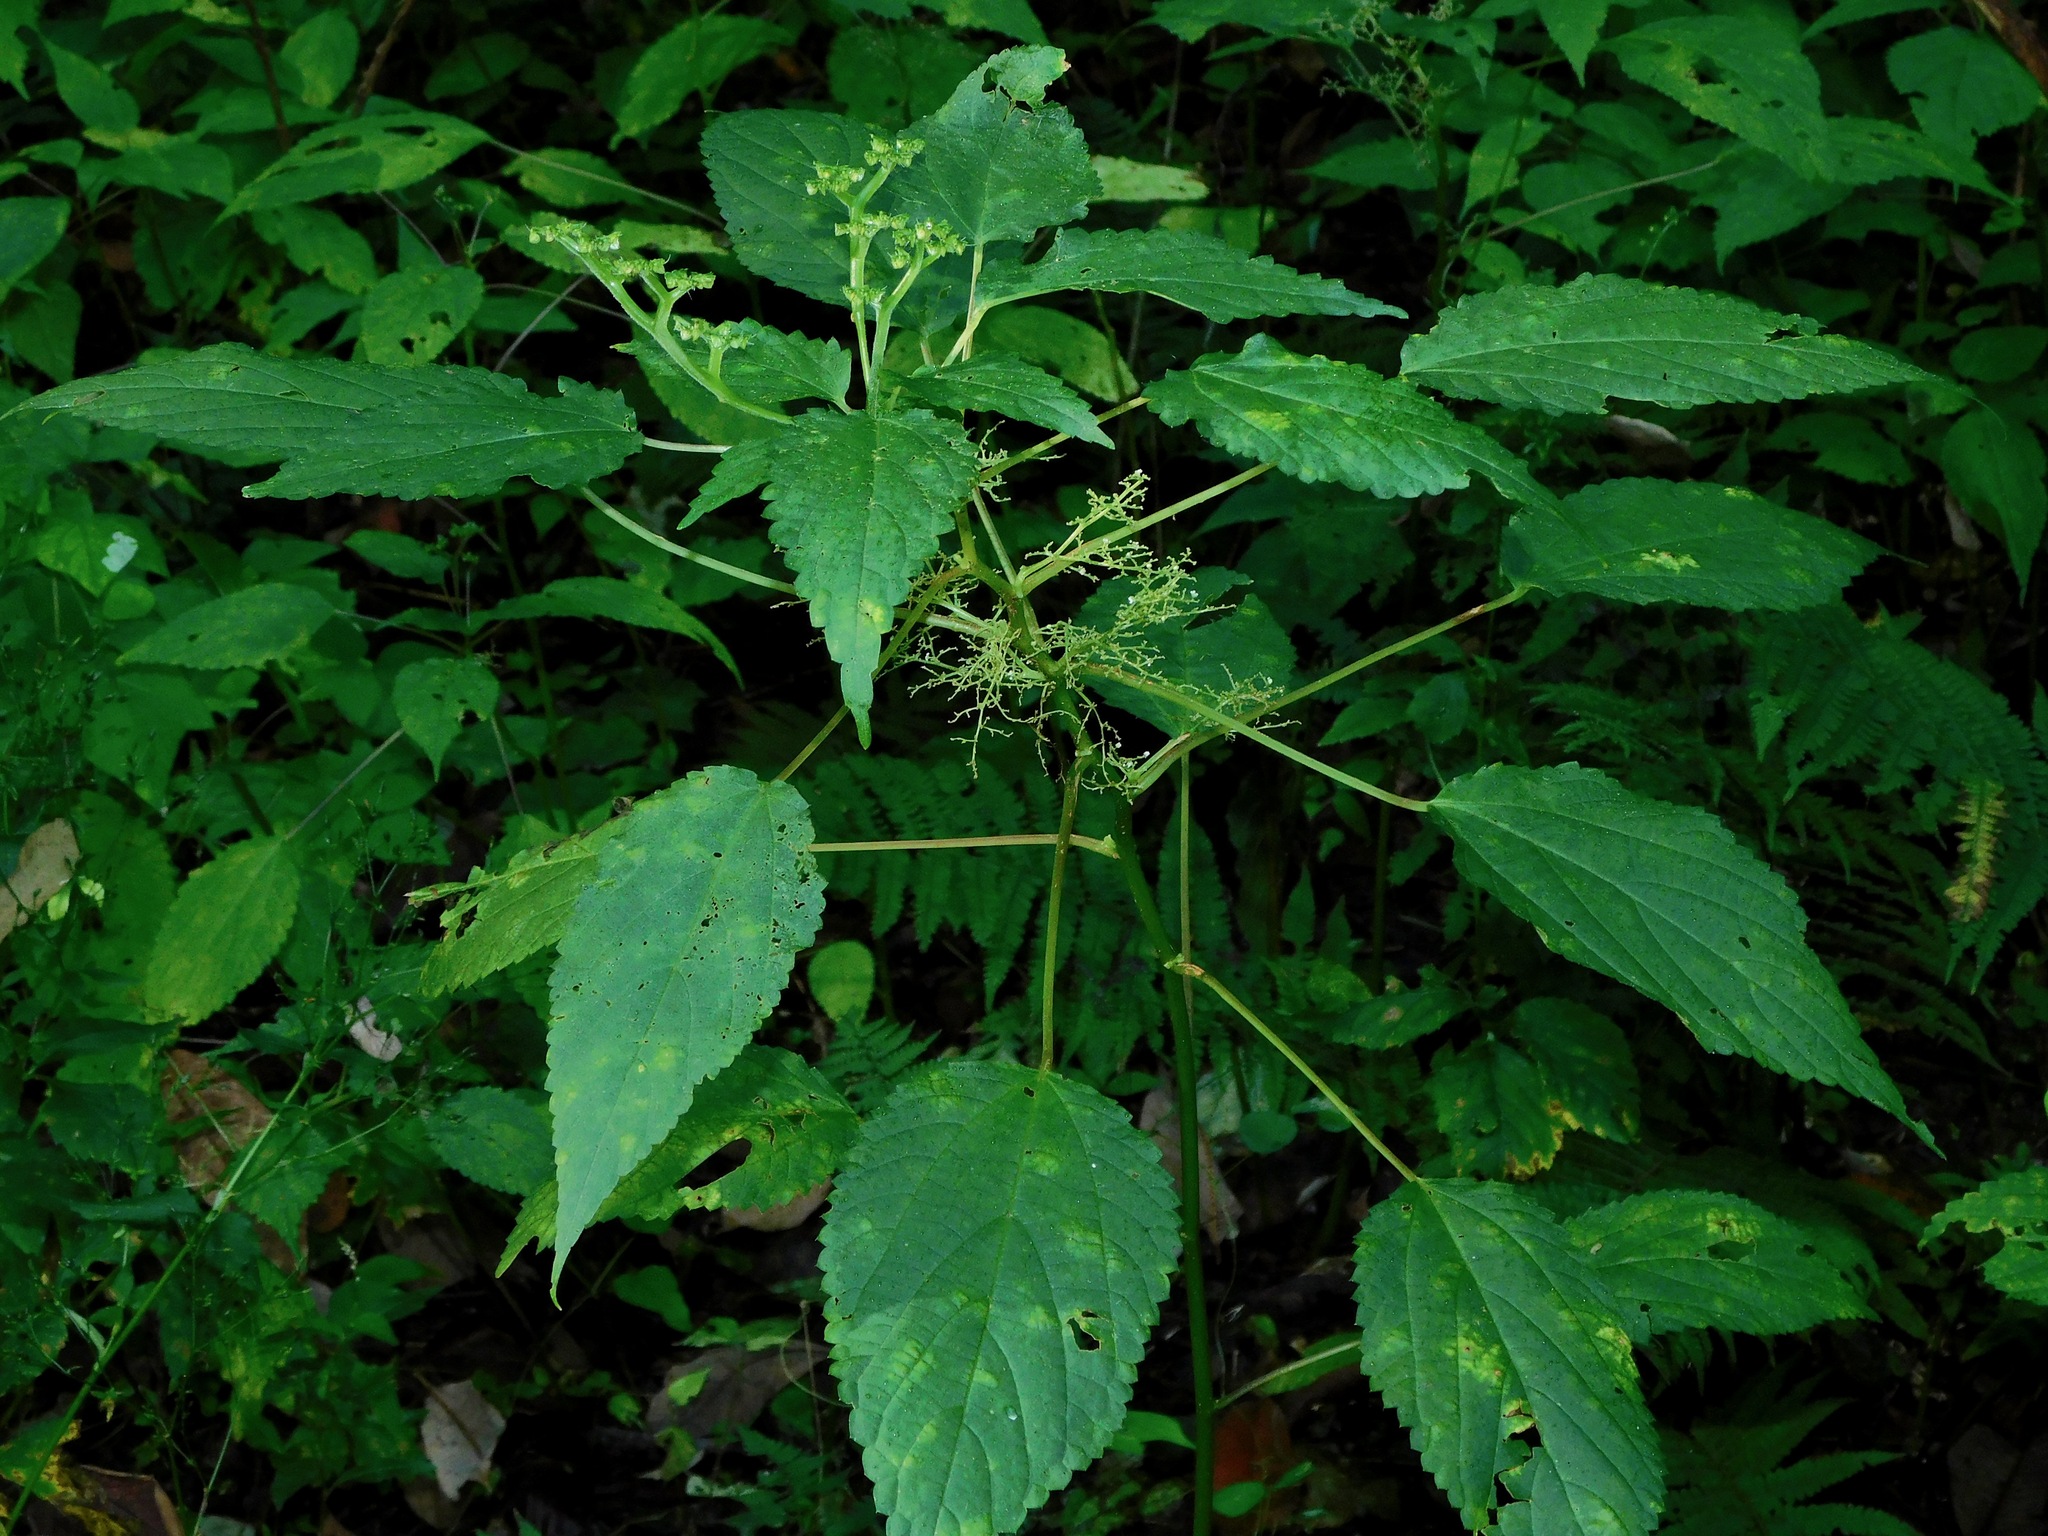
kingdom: Plantae
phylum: Tracheophyta
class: Magnoliopsida
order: Rosales
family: Urticaceae
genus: Laportea
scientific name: Laportea canadensis
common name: Canada nettle
